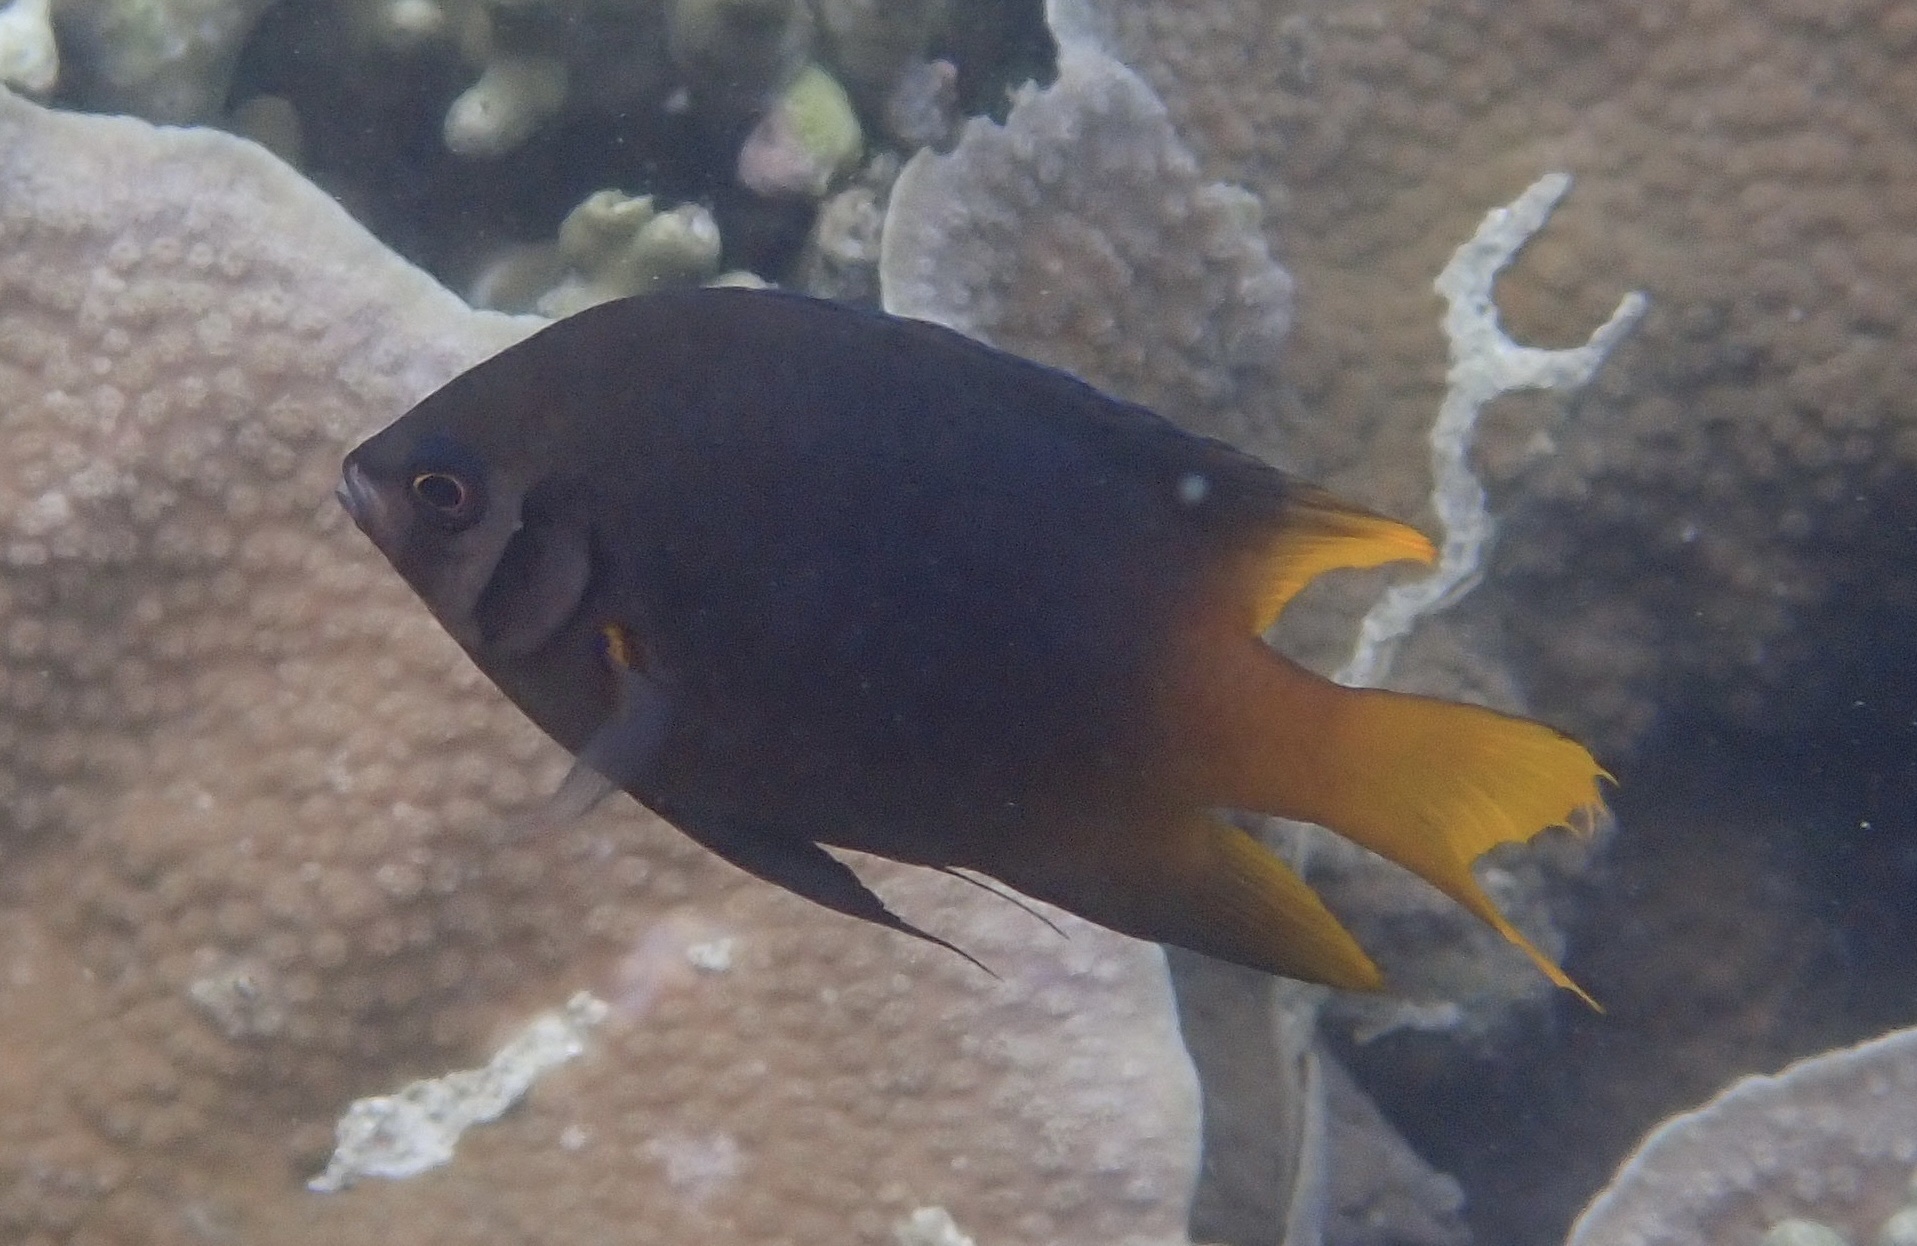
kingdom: Animalia
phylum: Chordata
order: Perciformes
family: Pomacentridae
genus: Neoglyphidodon
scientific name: Neoglyphidodon nigroris
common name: Behn's damsel
